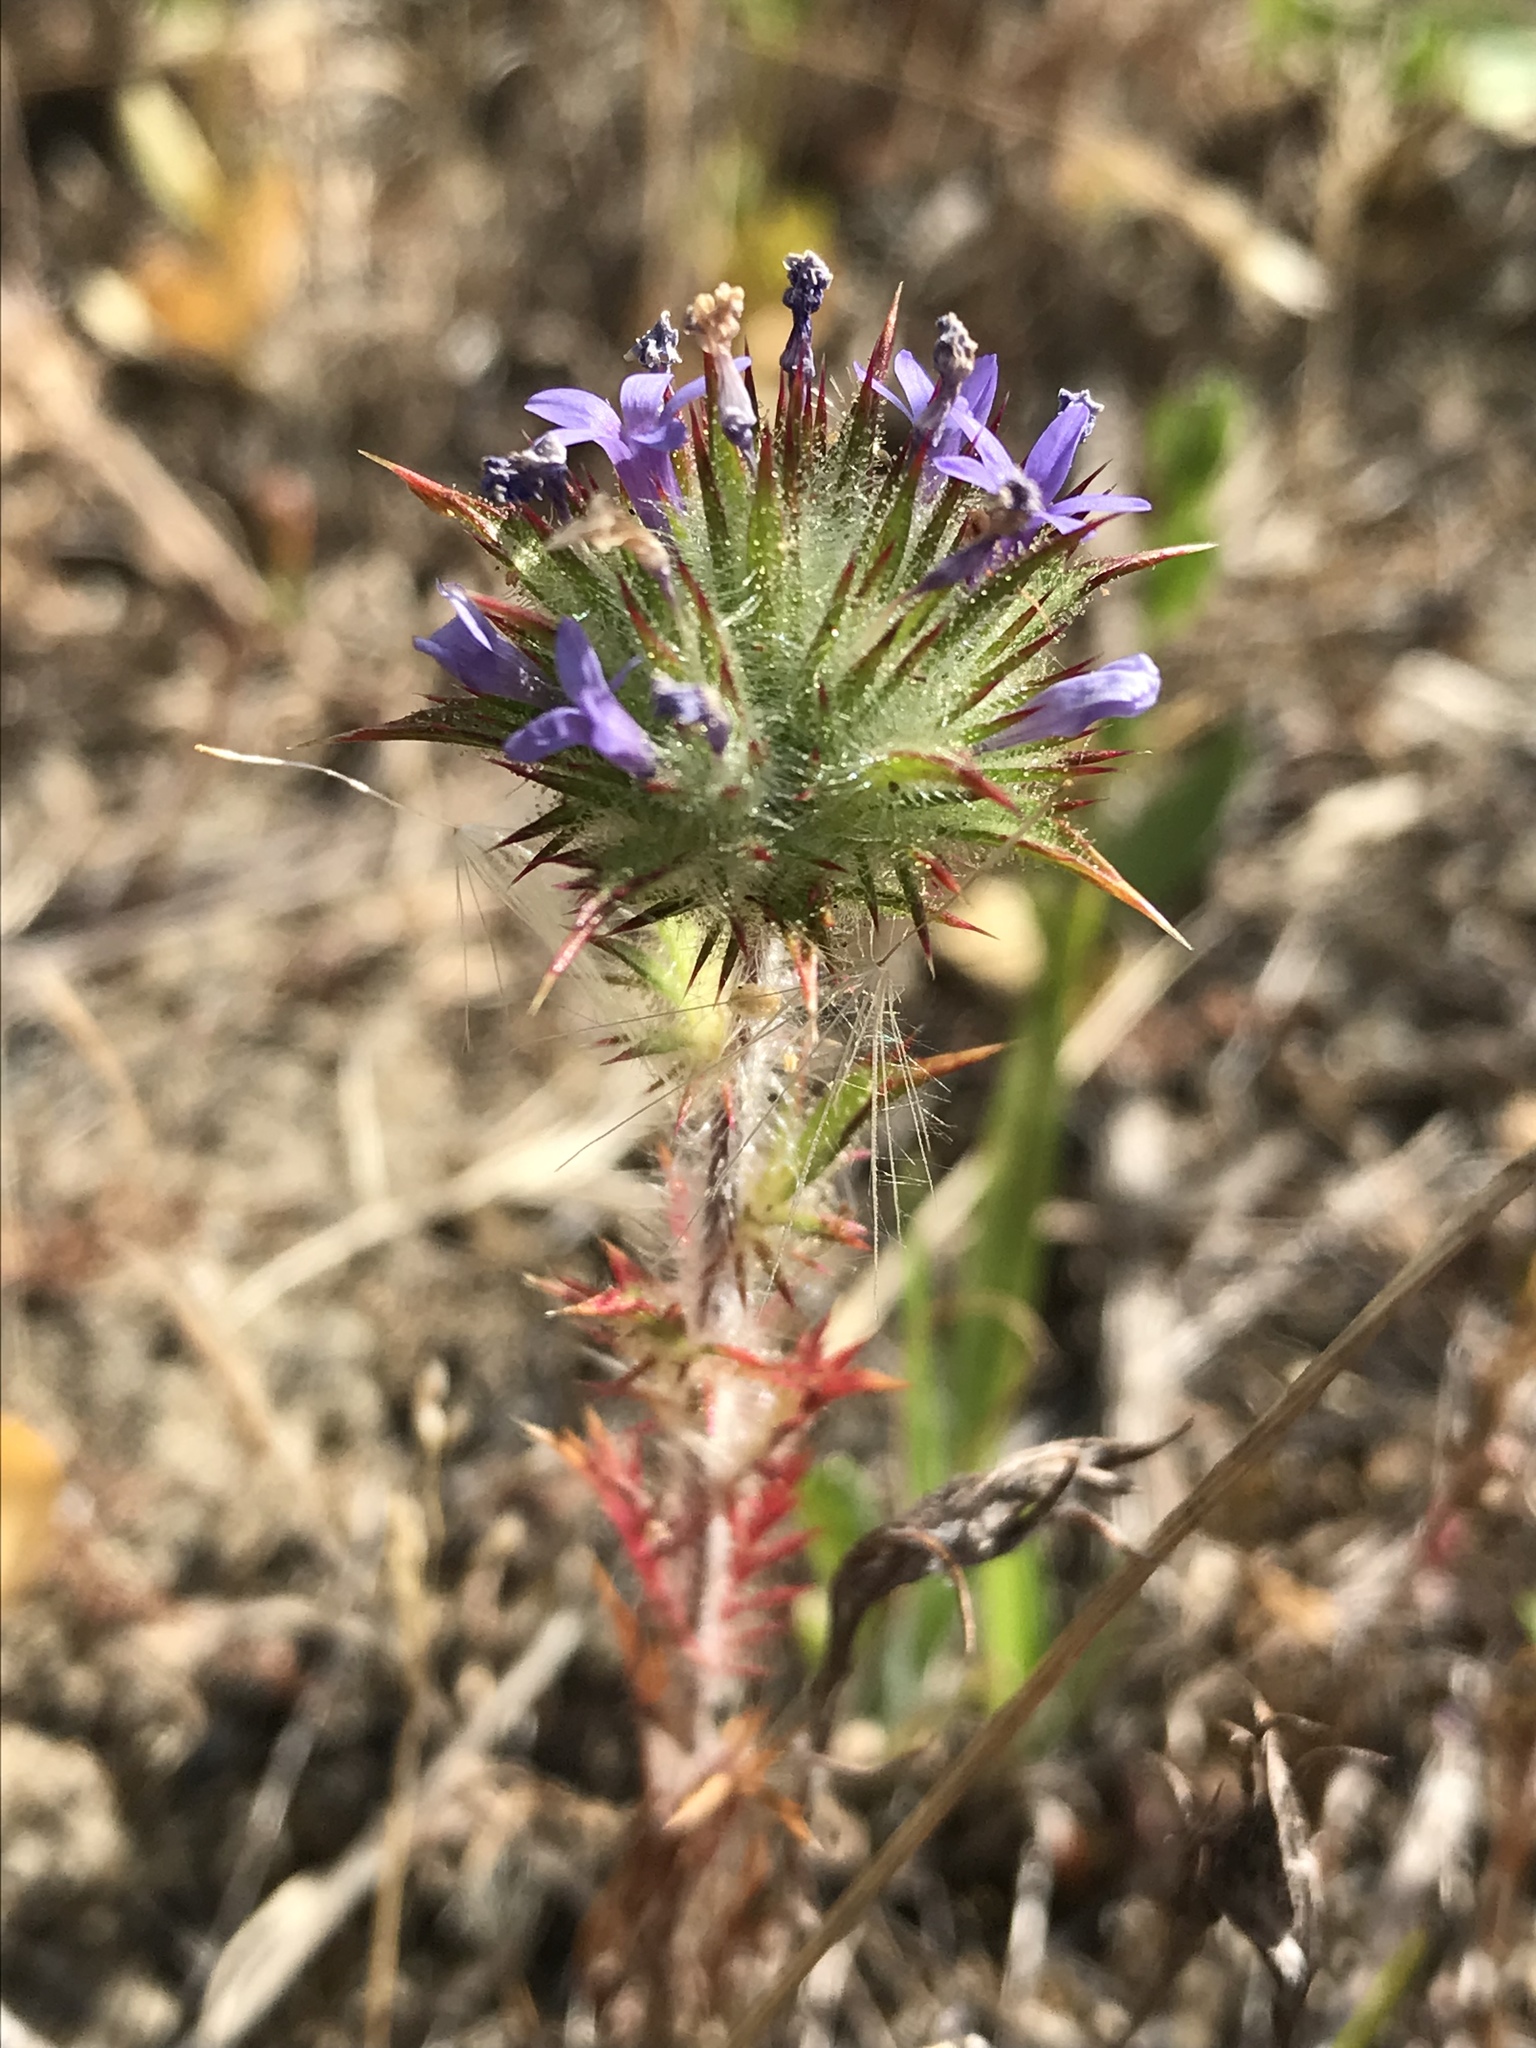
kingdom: Plantae
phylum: Tracheophyta
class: Magnoliopsida
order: Ericales
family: Polemoniaceae
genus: Navarretia
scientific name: Navarretia squarrosa
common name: Skunkweed
